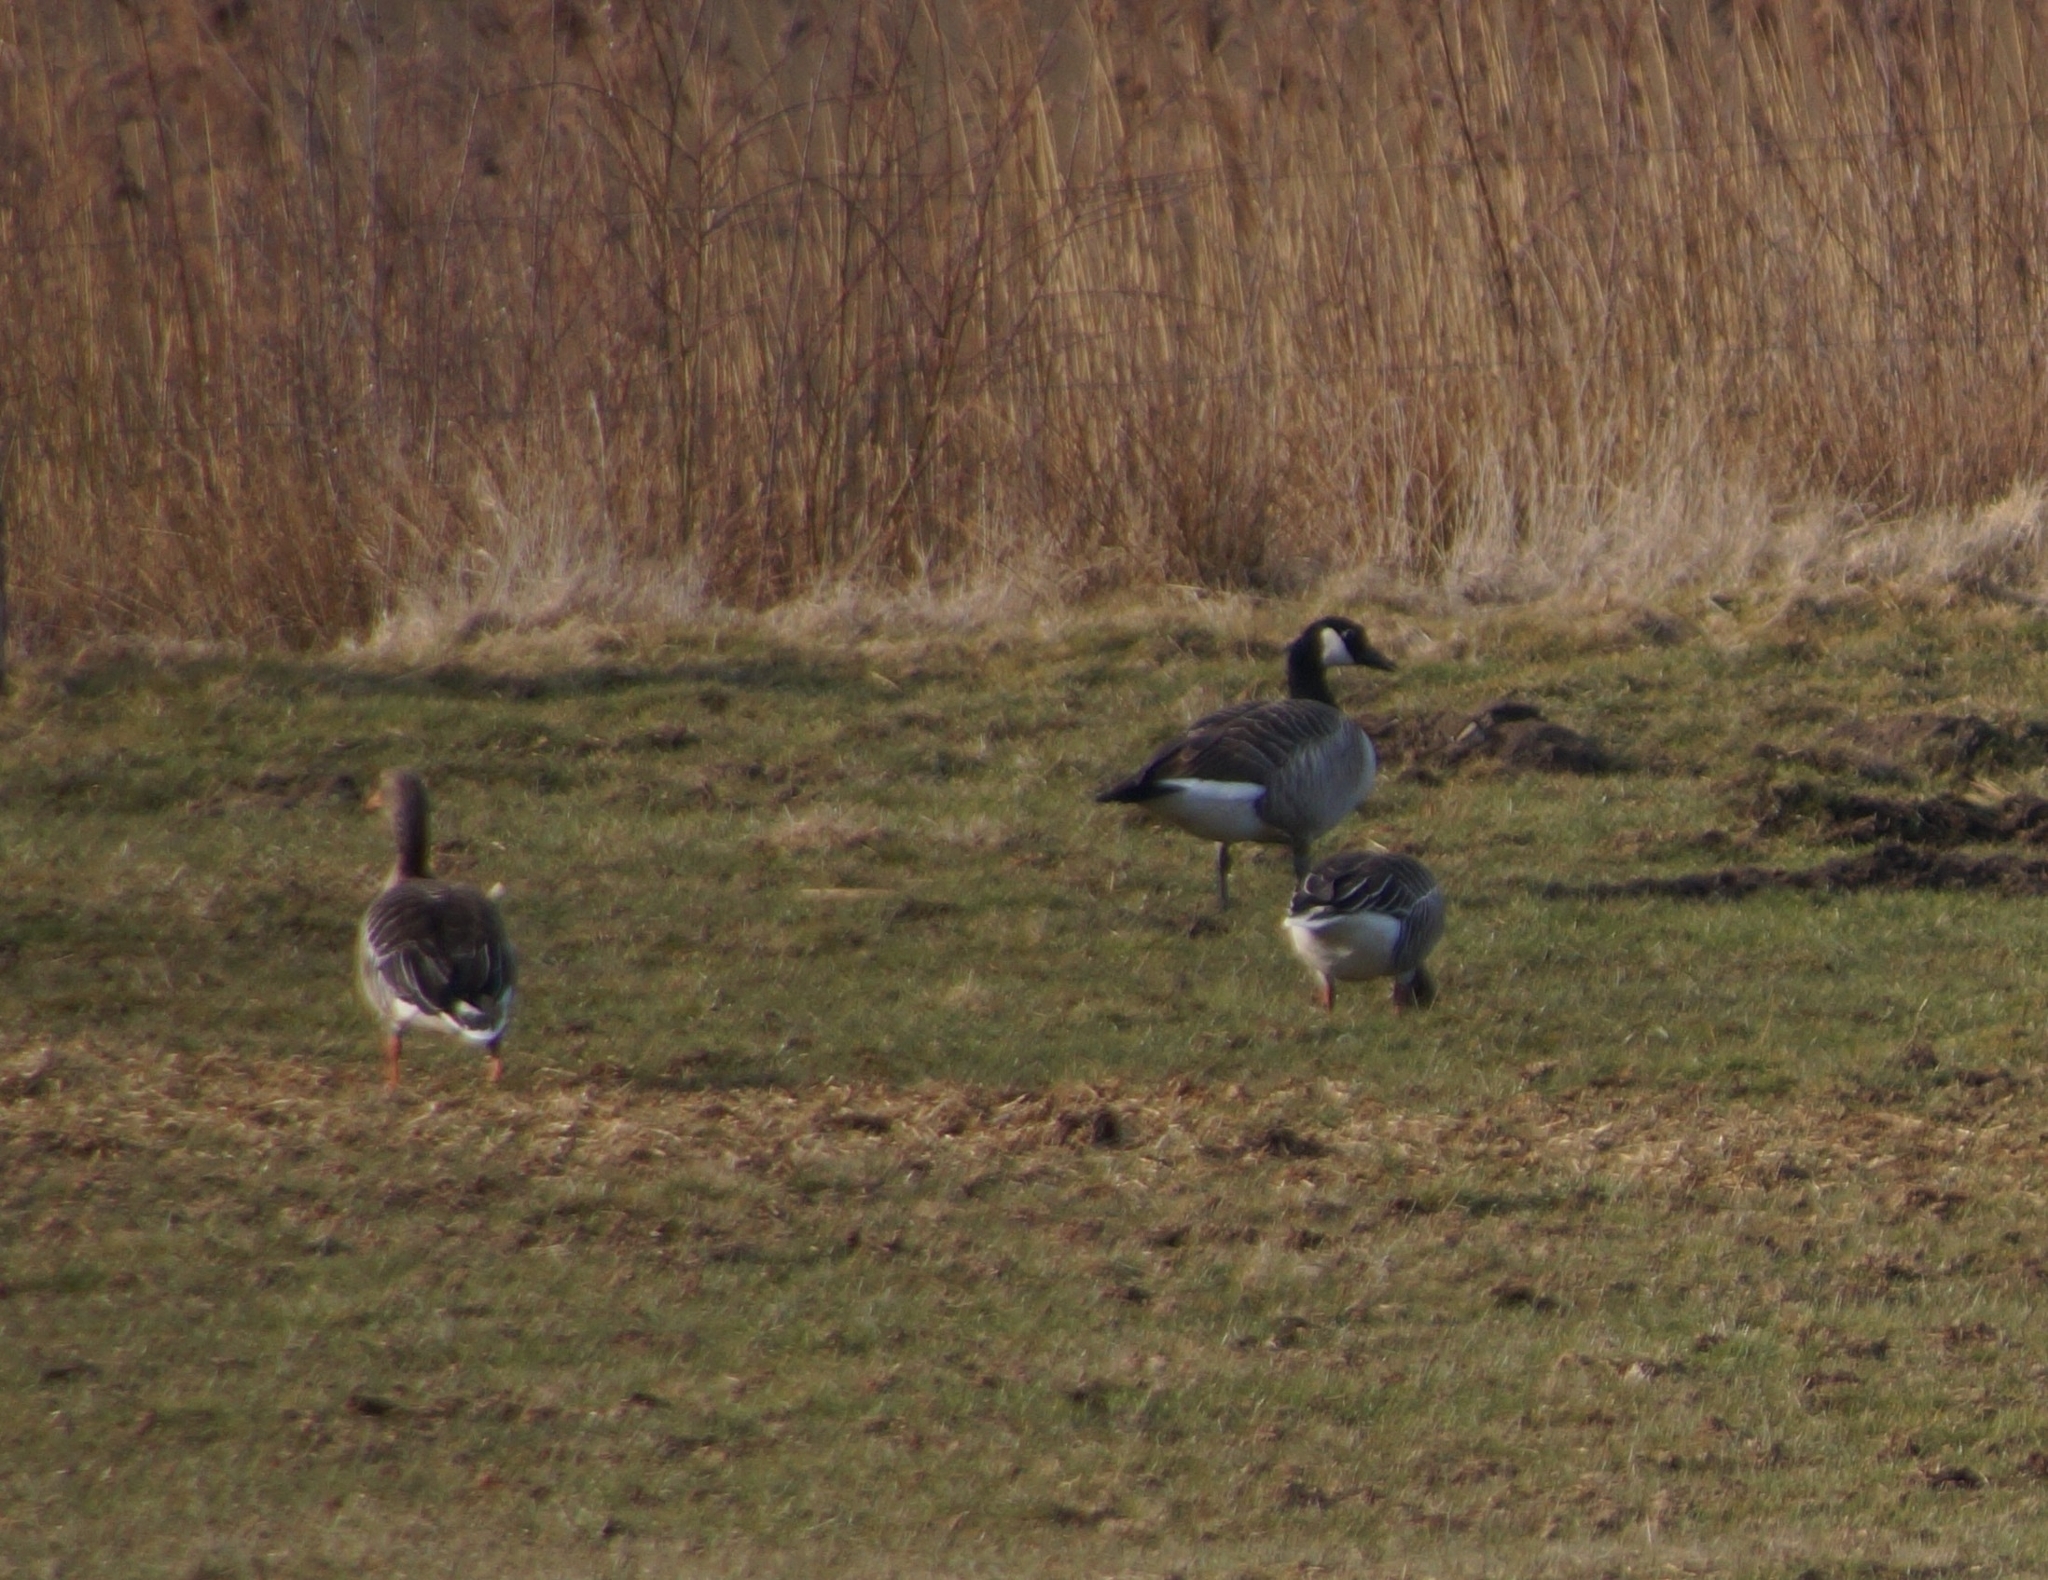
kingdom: Animalia
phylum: Chordata
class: Aves
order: Anseriformes
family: Anatidae
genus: Branta
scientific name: Branta canadensis
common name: Canada goose
